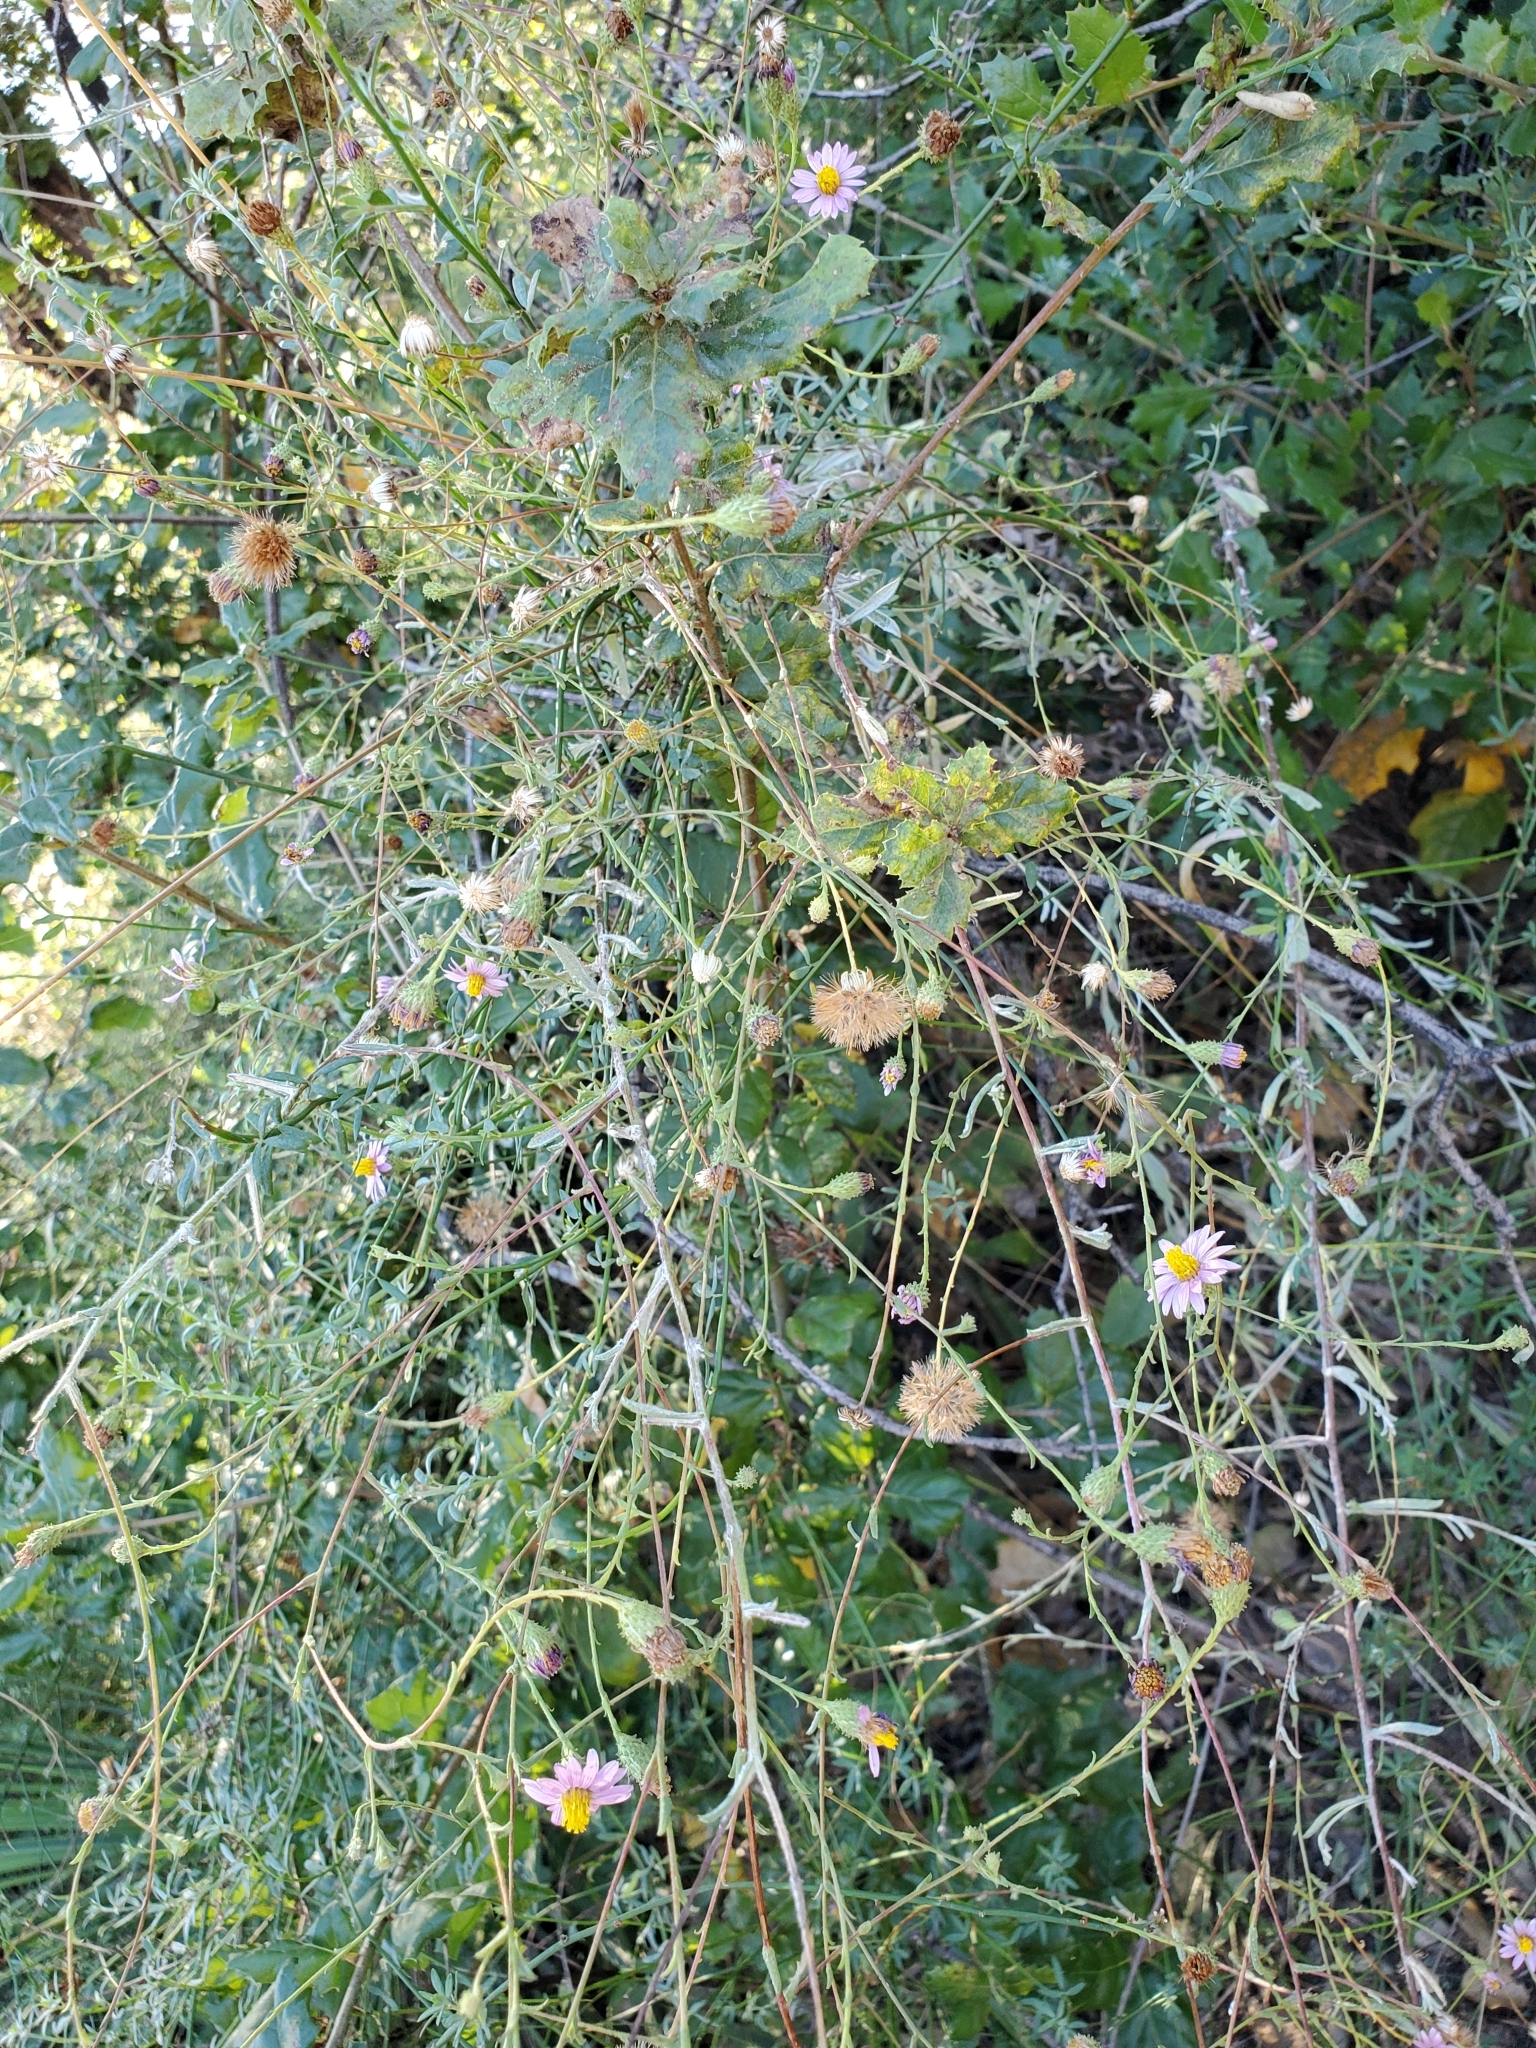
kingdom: Plantae
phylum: Tracheophyta
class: Magnoliopsida
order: Asterales
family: Asteraceae
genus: Corethrogyne
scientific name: Corethrogyne filaginifolia
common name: Sand-aster
